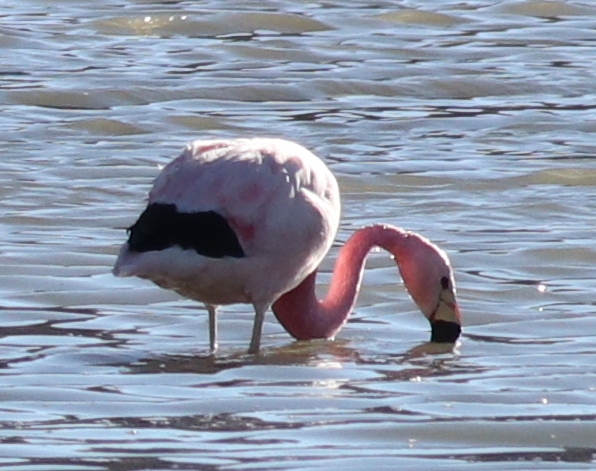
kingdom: Animalia
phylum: Chordata
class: Aves
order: Phoenicopteriformes
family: Phoenicopteridae
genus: Phoenicoparrus
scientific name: Phoenicoparrus andinus
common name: Andean flamingo
